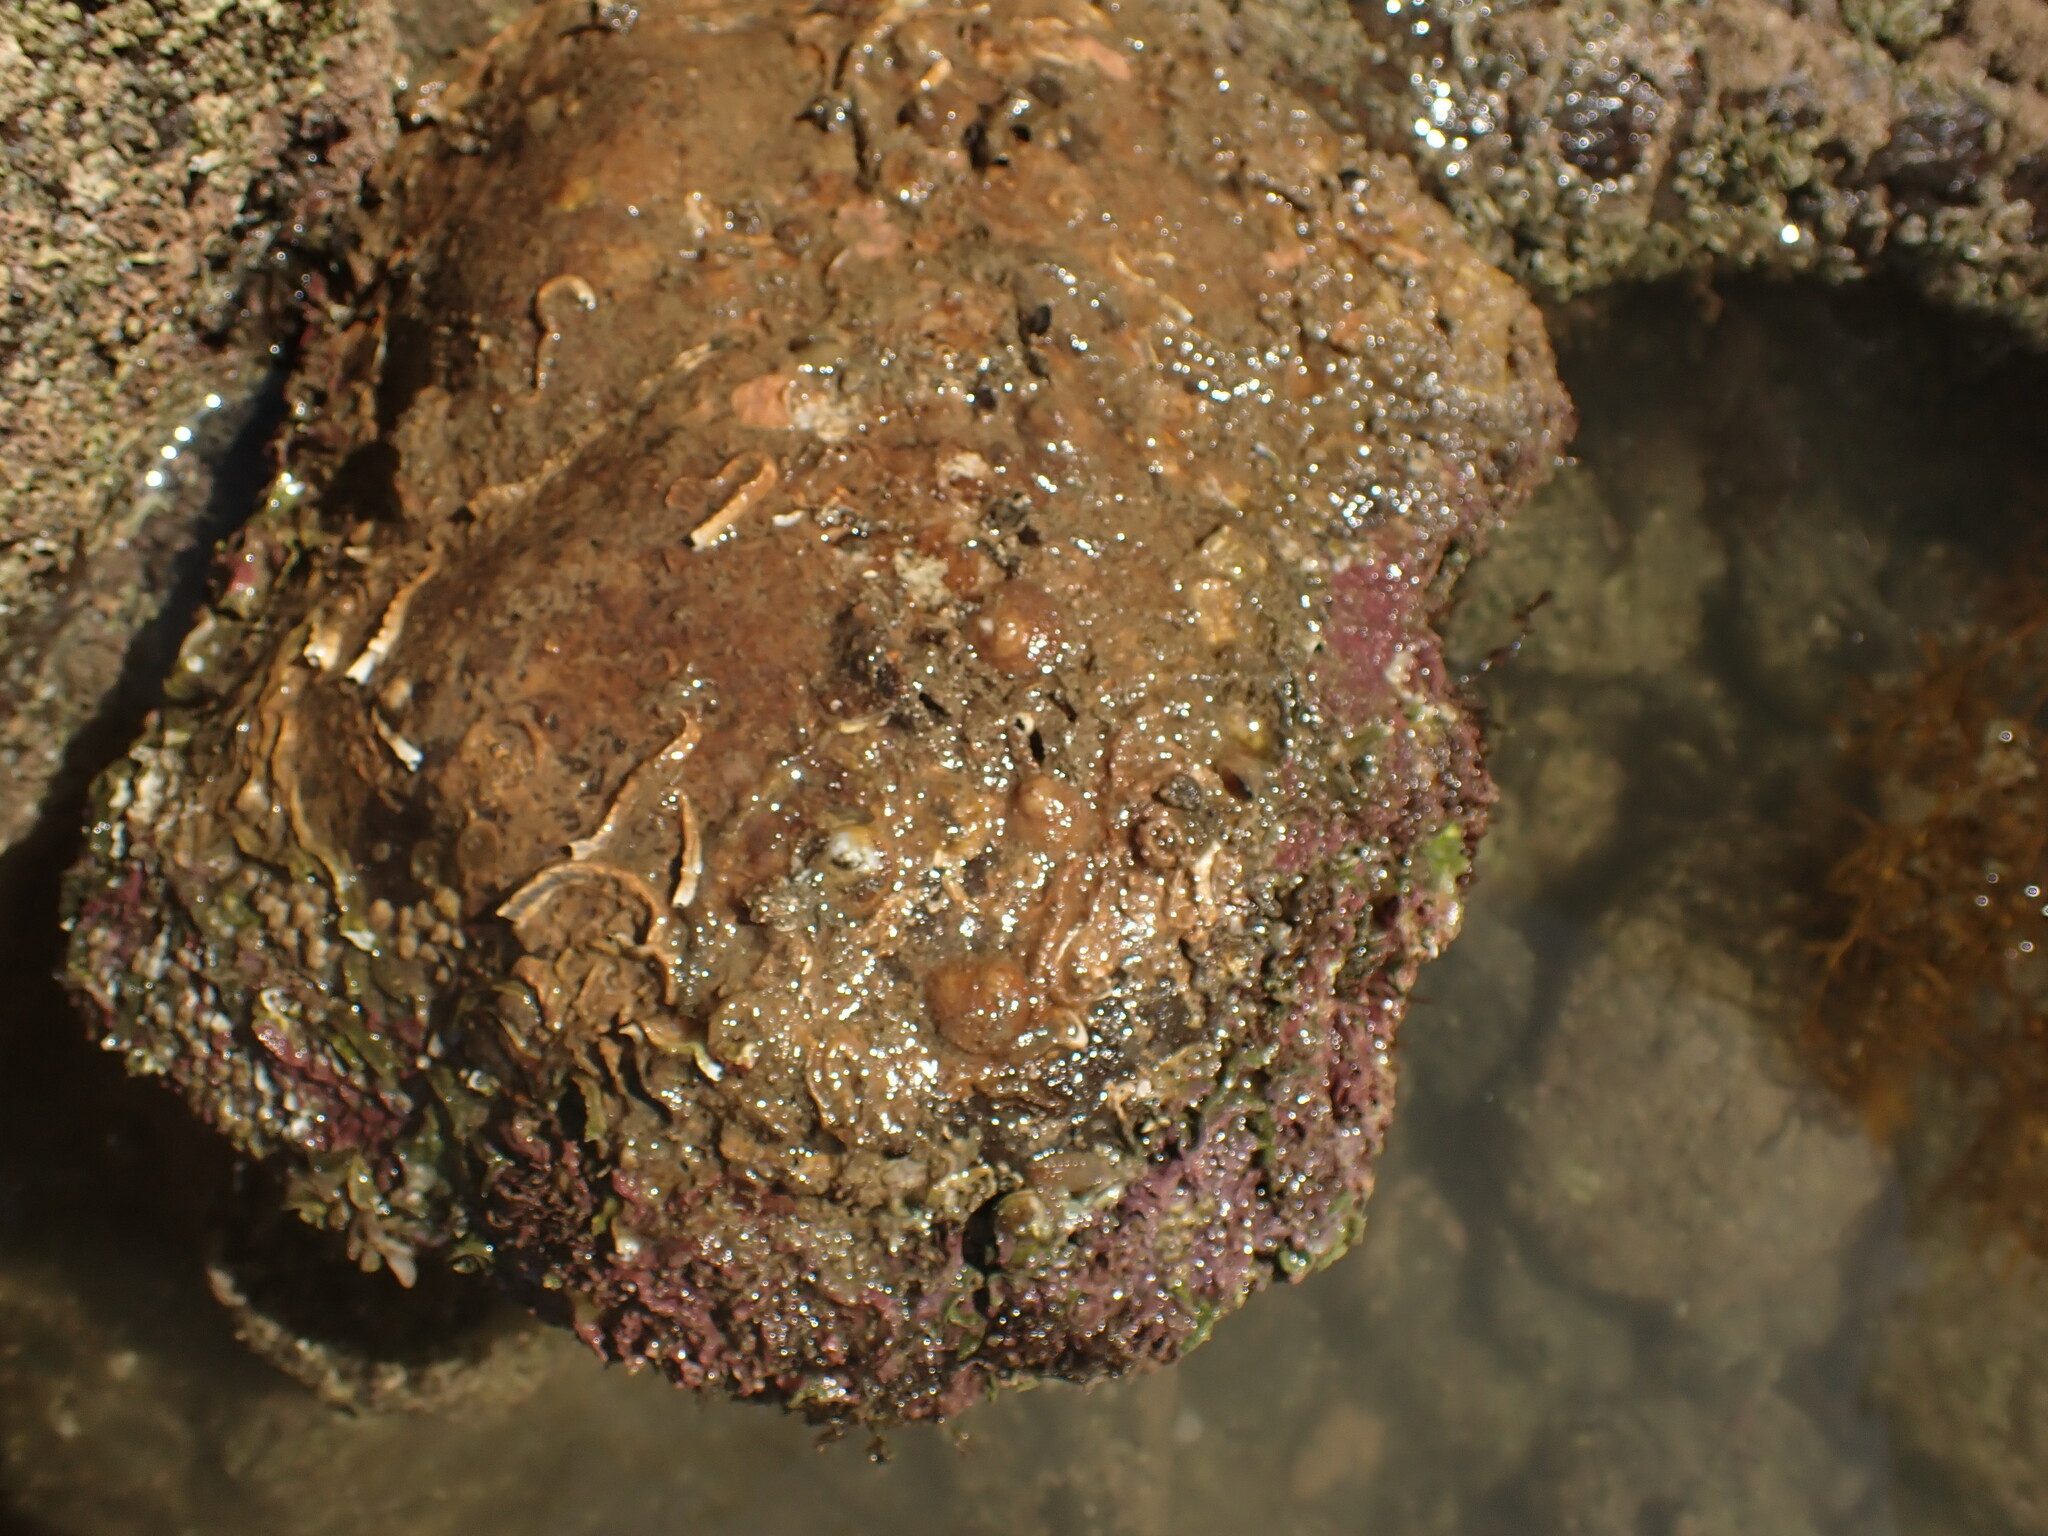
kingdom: Animalia
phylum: Mollusca
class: Gastropoda
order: Littorinimorpha
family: Calyptraeidae
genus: Sigapatella
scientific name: Sigapatella novaezelandiae
